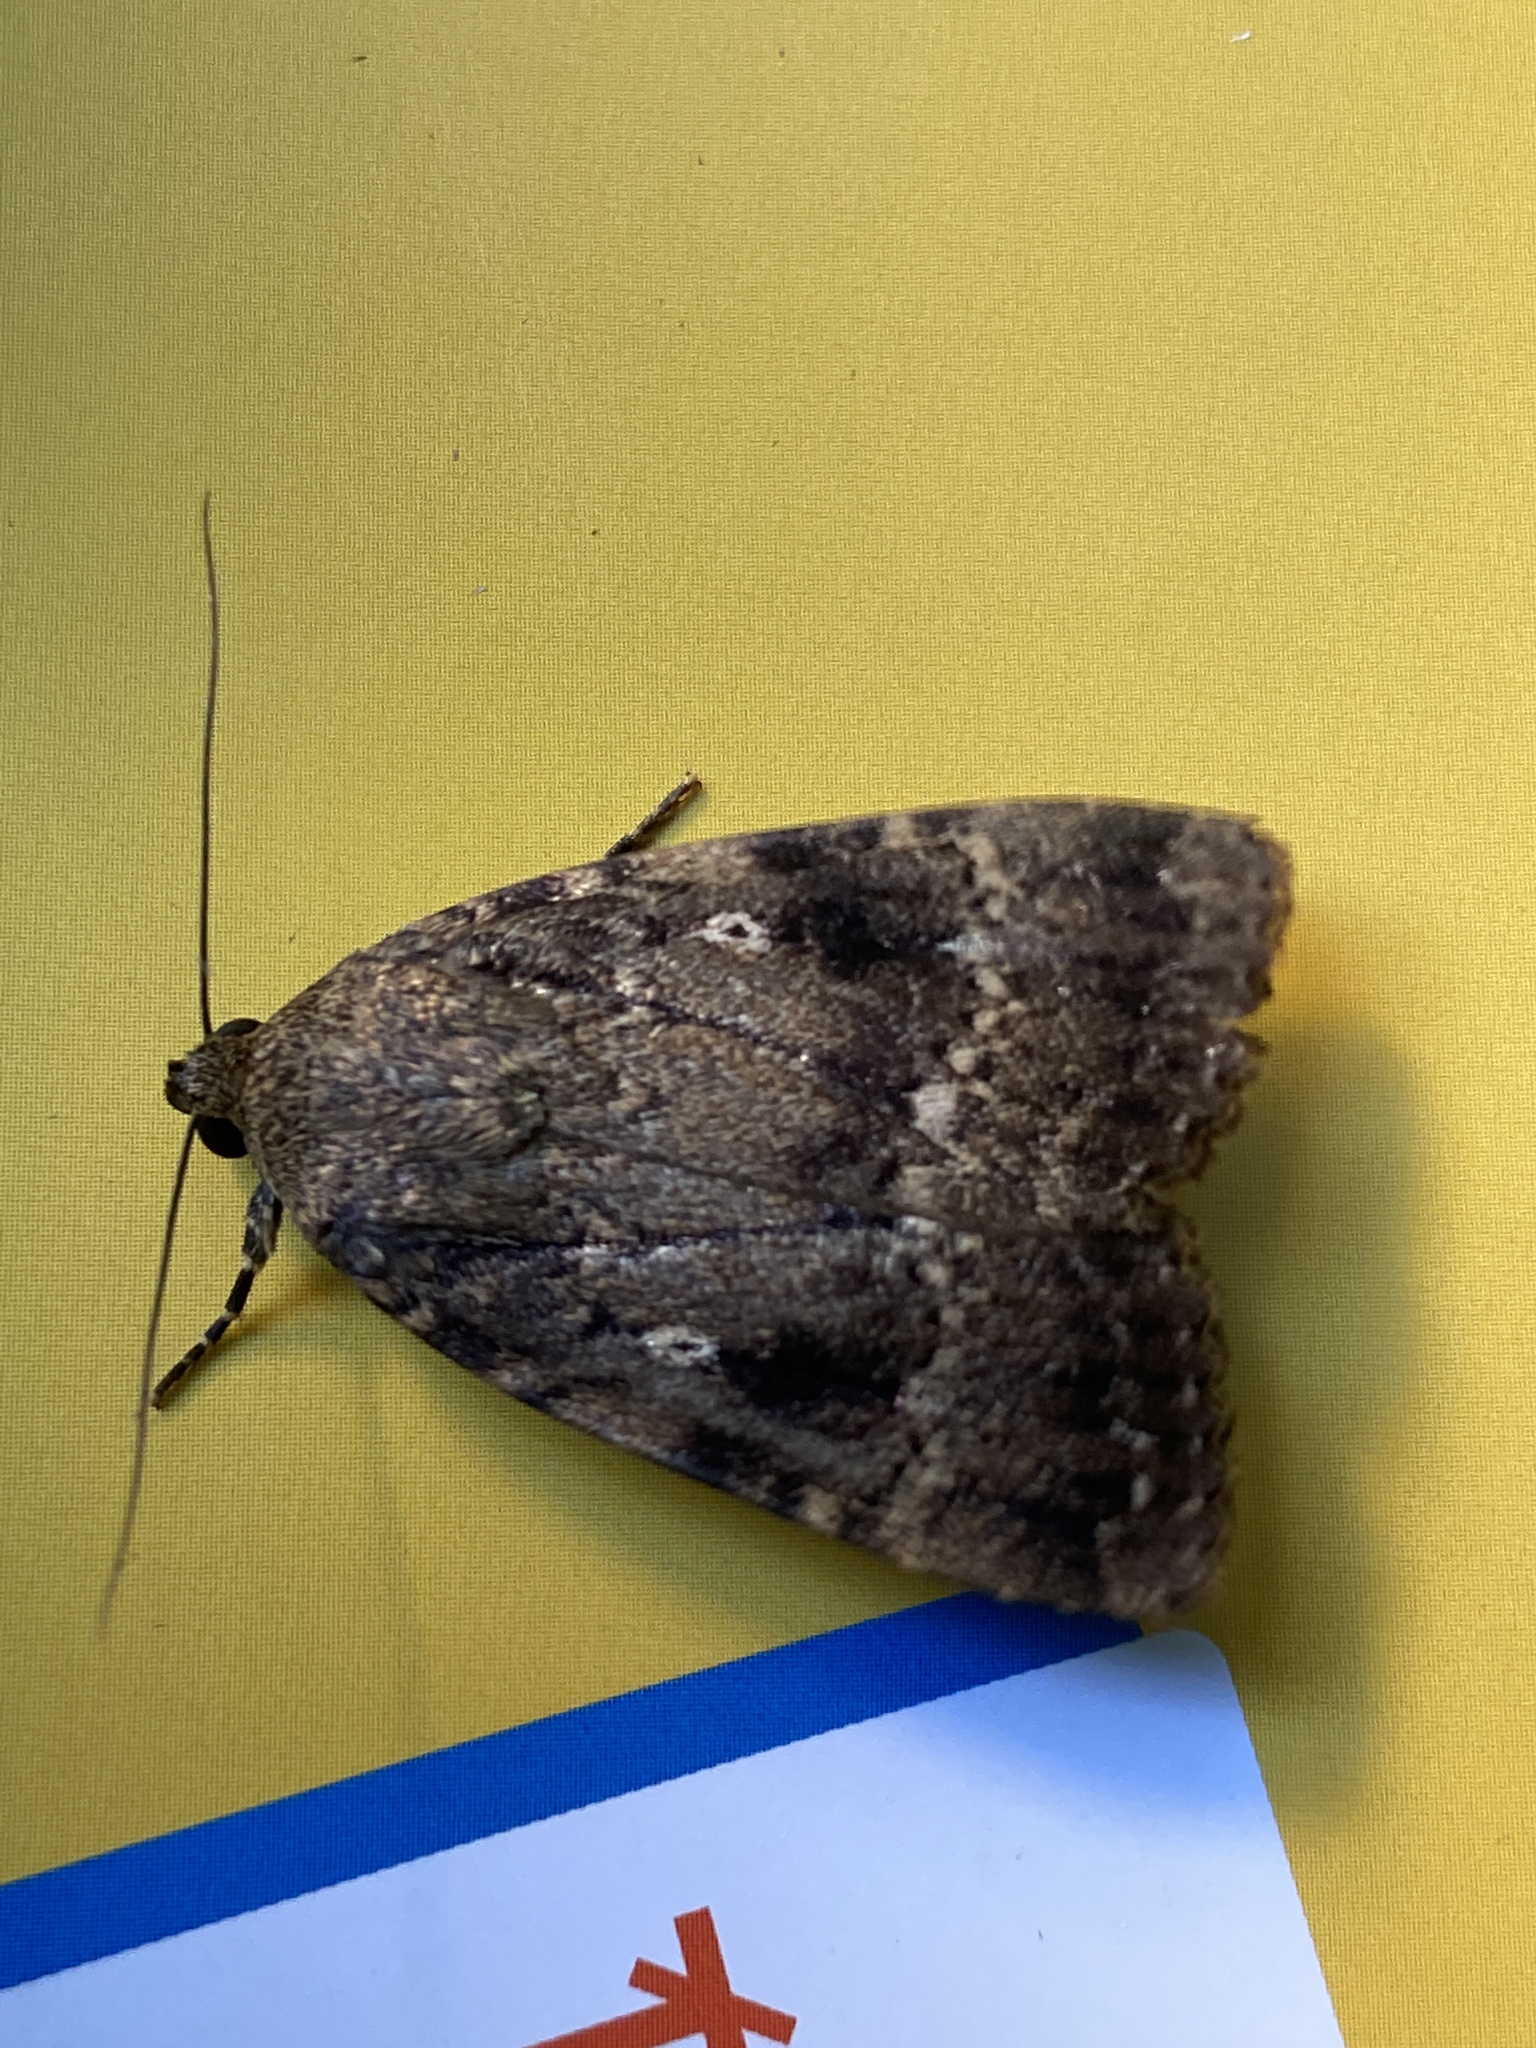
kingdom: Animalia
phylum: Arthropoda
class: Insecta
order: Lepidoptera
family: Noctuidae
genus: Amphipyra
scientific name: Amphipyra pyramidea
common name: Copper underwing
